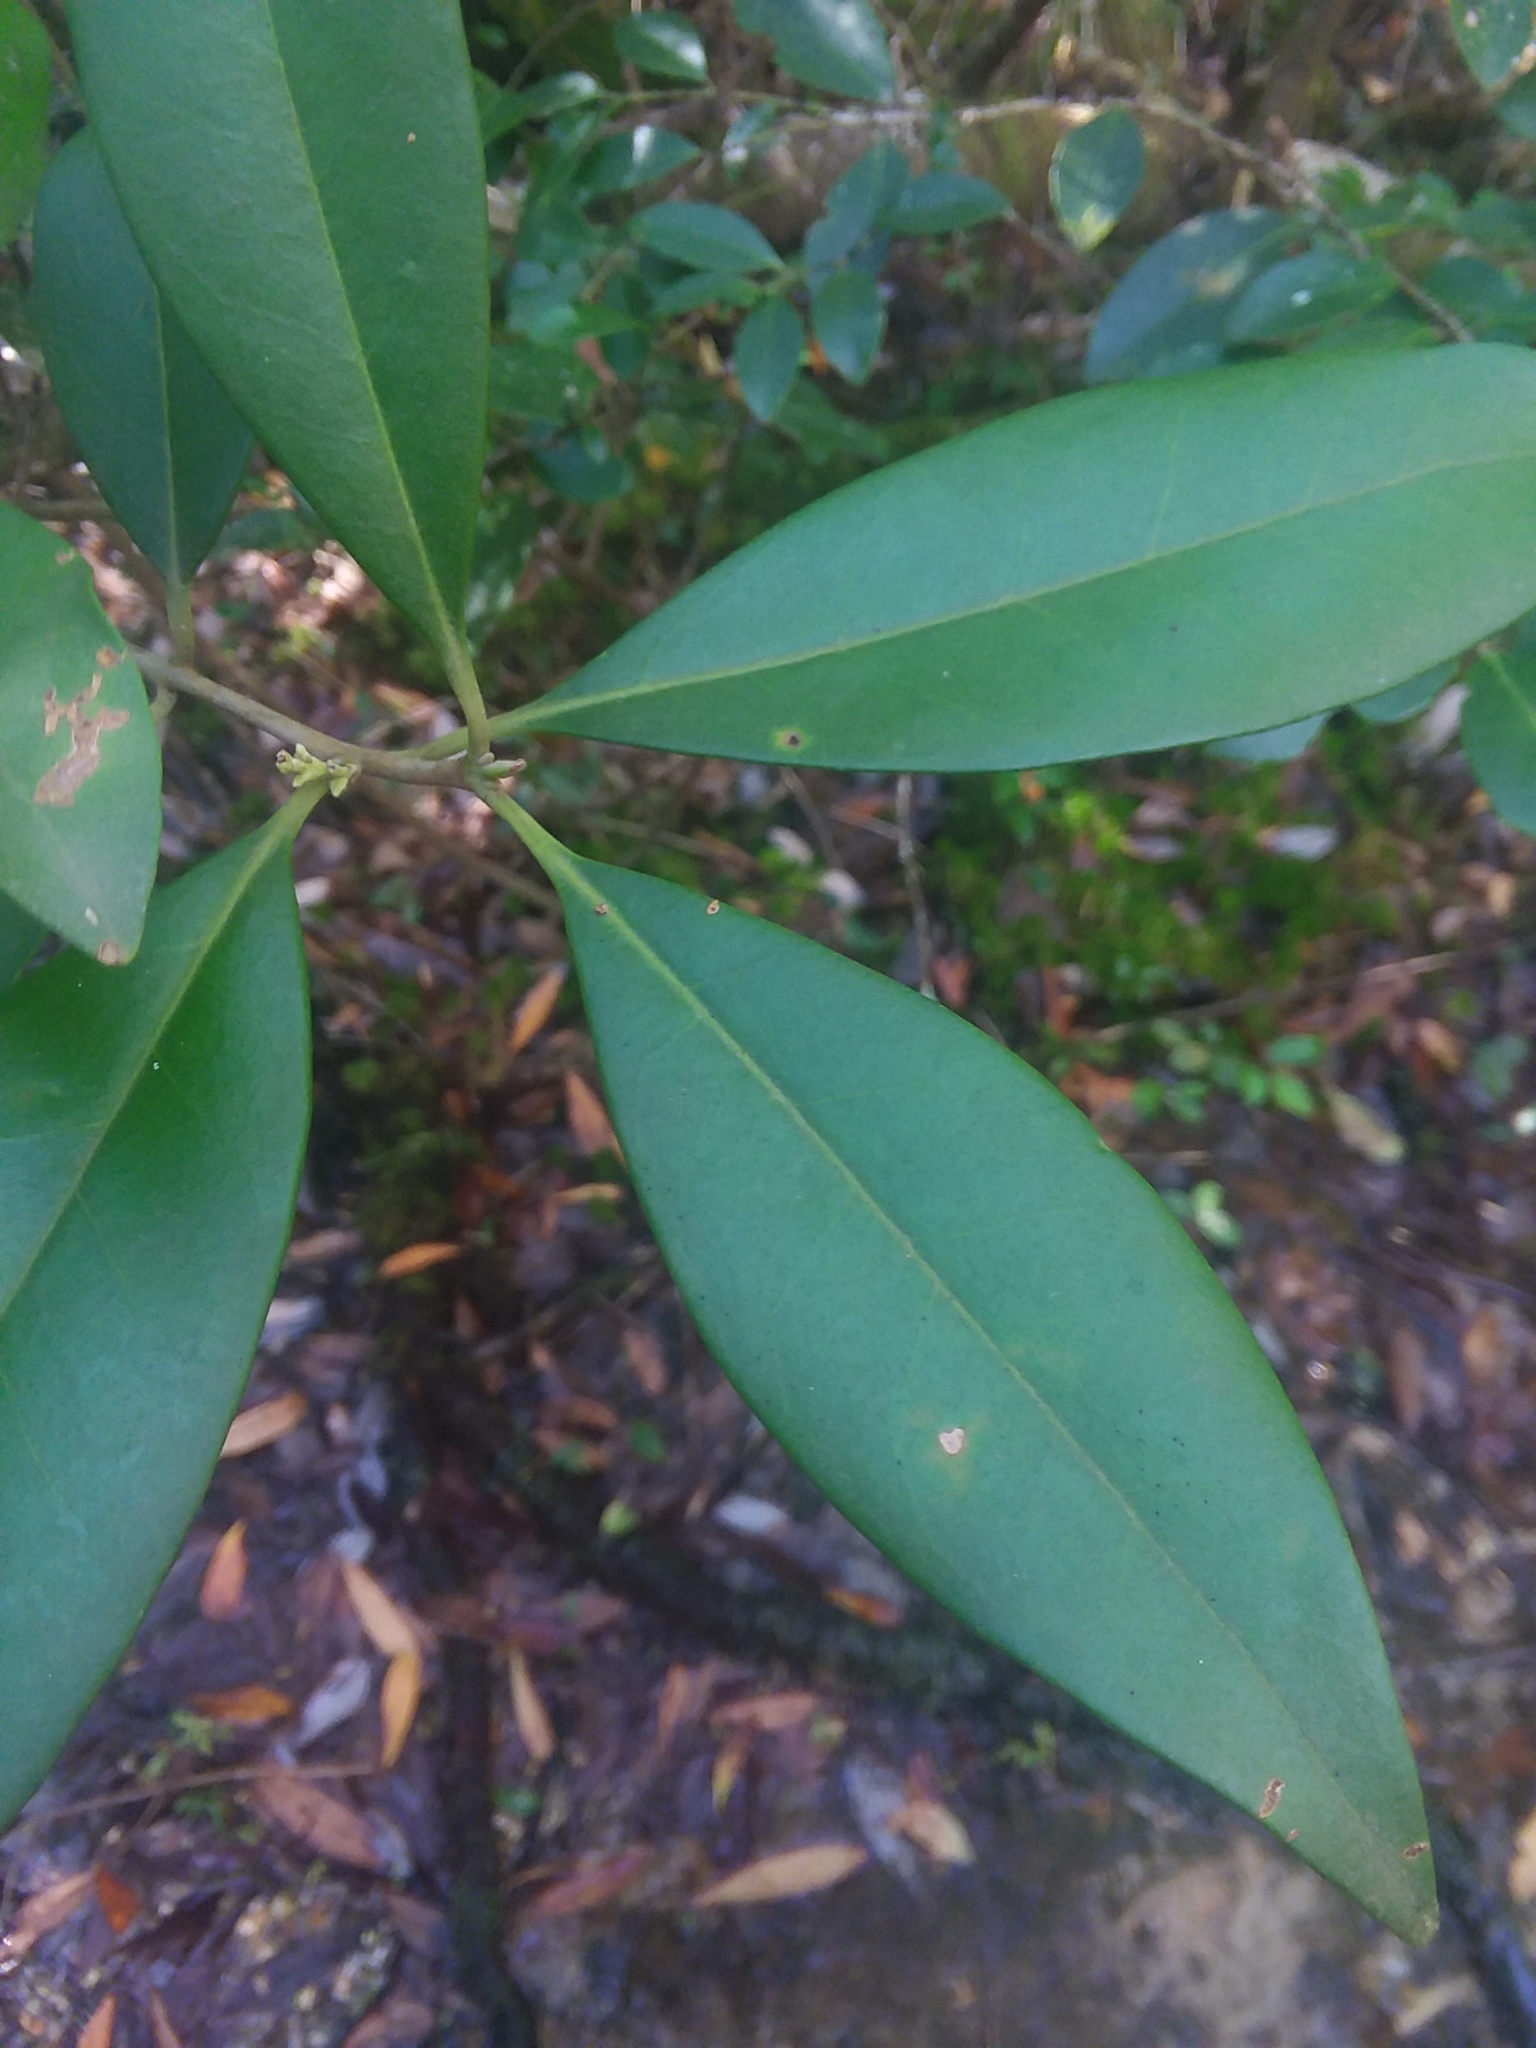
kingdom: Plantae
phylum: Tracheophyta
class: Magnoliopsida
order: Lamiales
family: Oleaceae
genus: Cartrema
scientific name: Cartrema americana
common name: Devilwood
